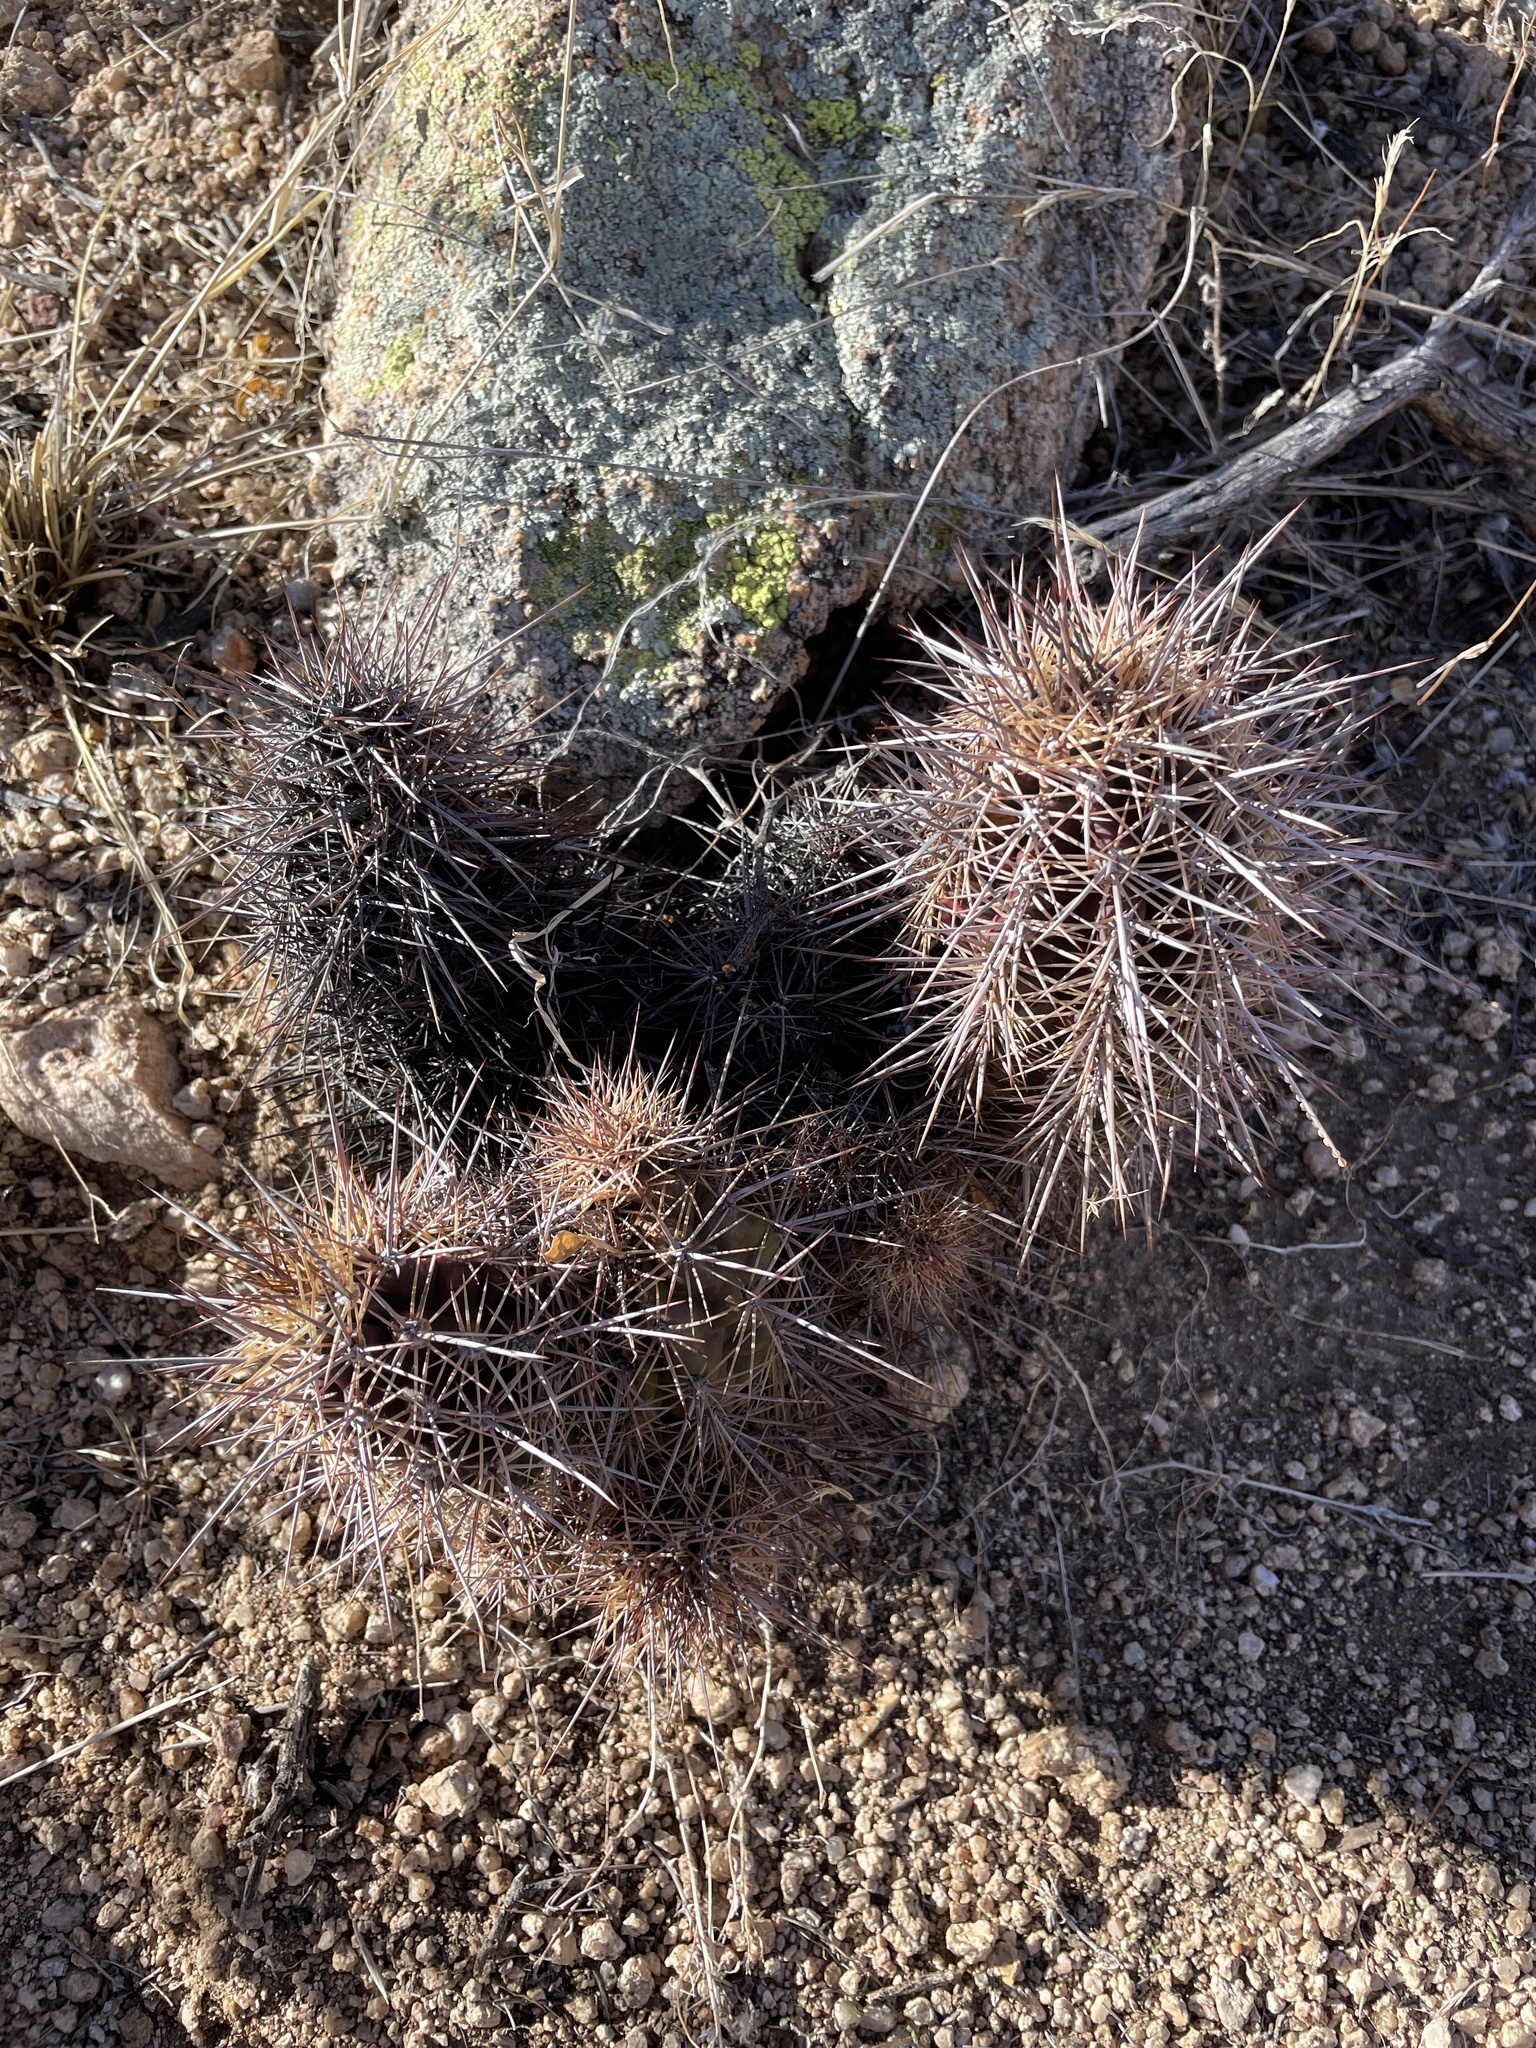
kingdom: Plantae
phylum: Tracheophyta
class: Magnoliopsida
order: Caryophyllales
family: Cactaceae
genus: Echinocereus
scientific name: Echinocereus arizonicus
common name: Arizona hedgehog cactus
